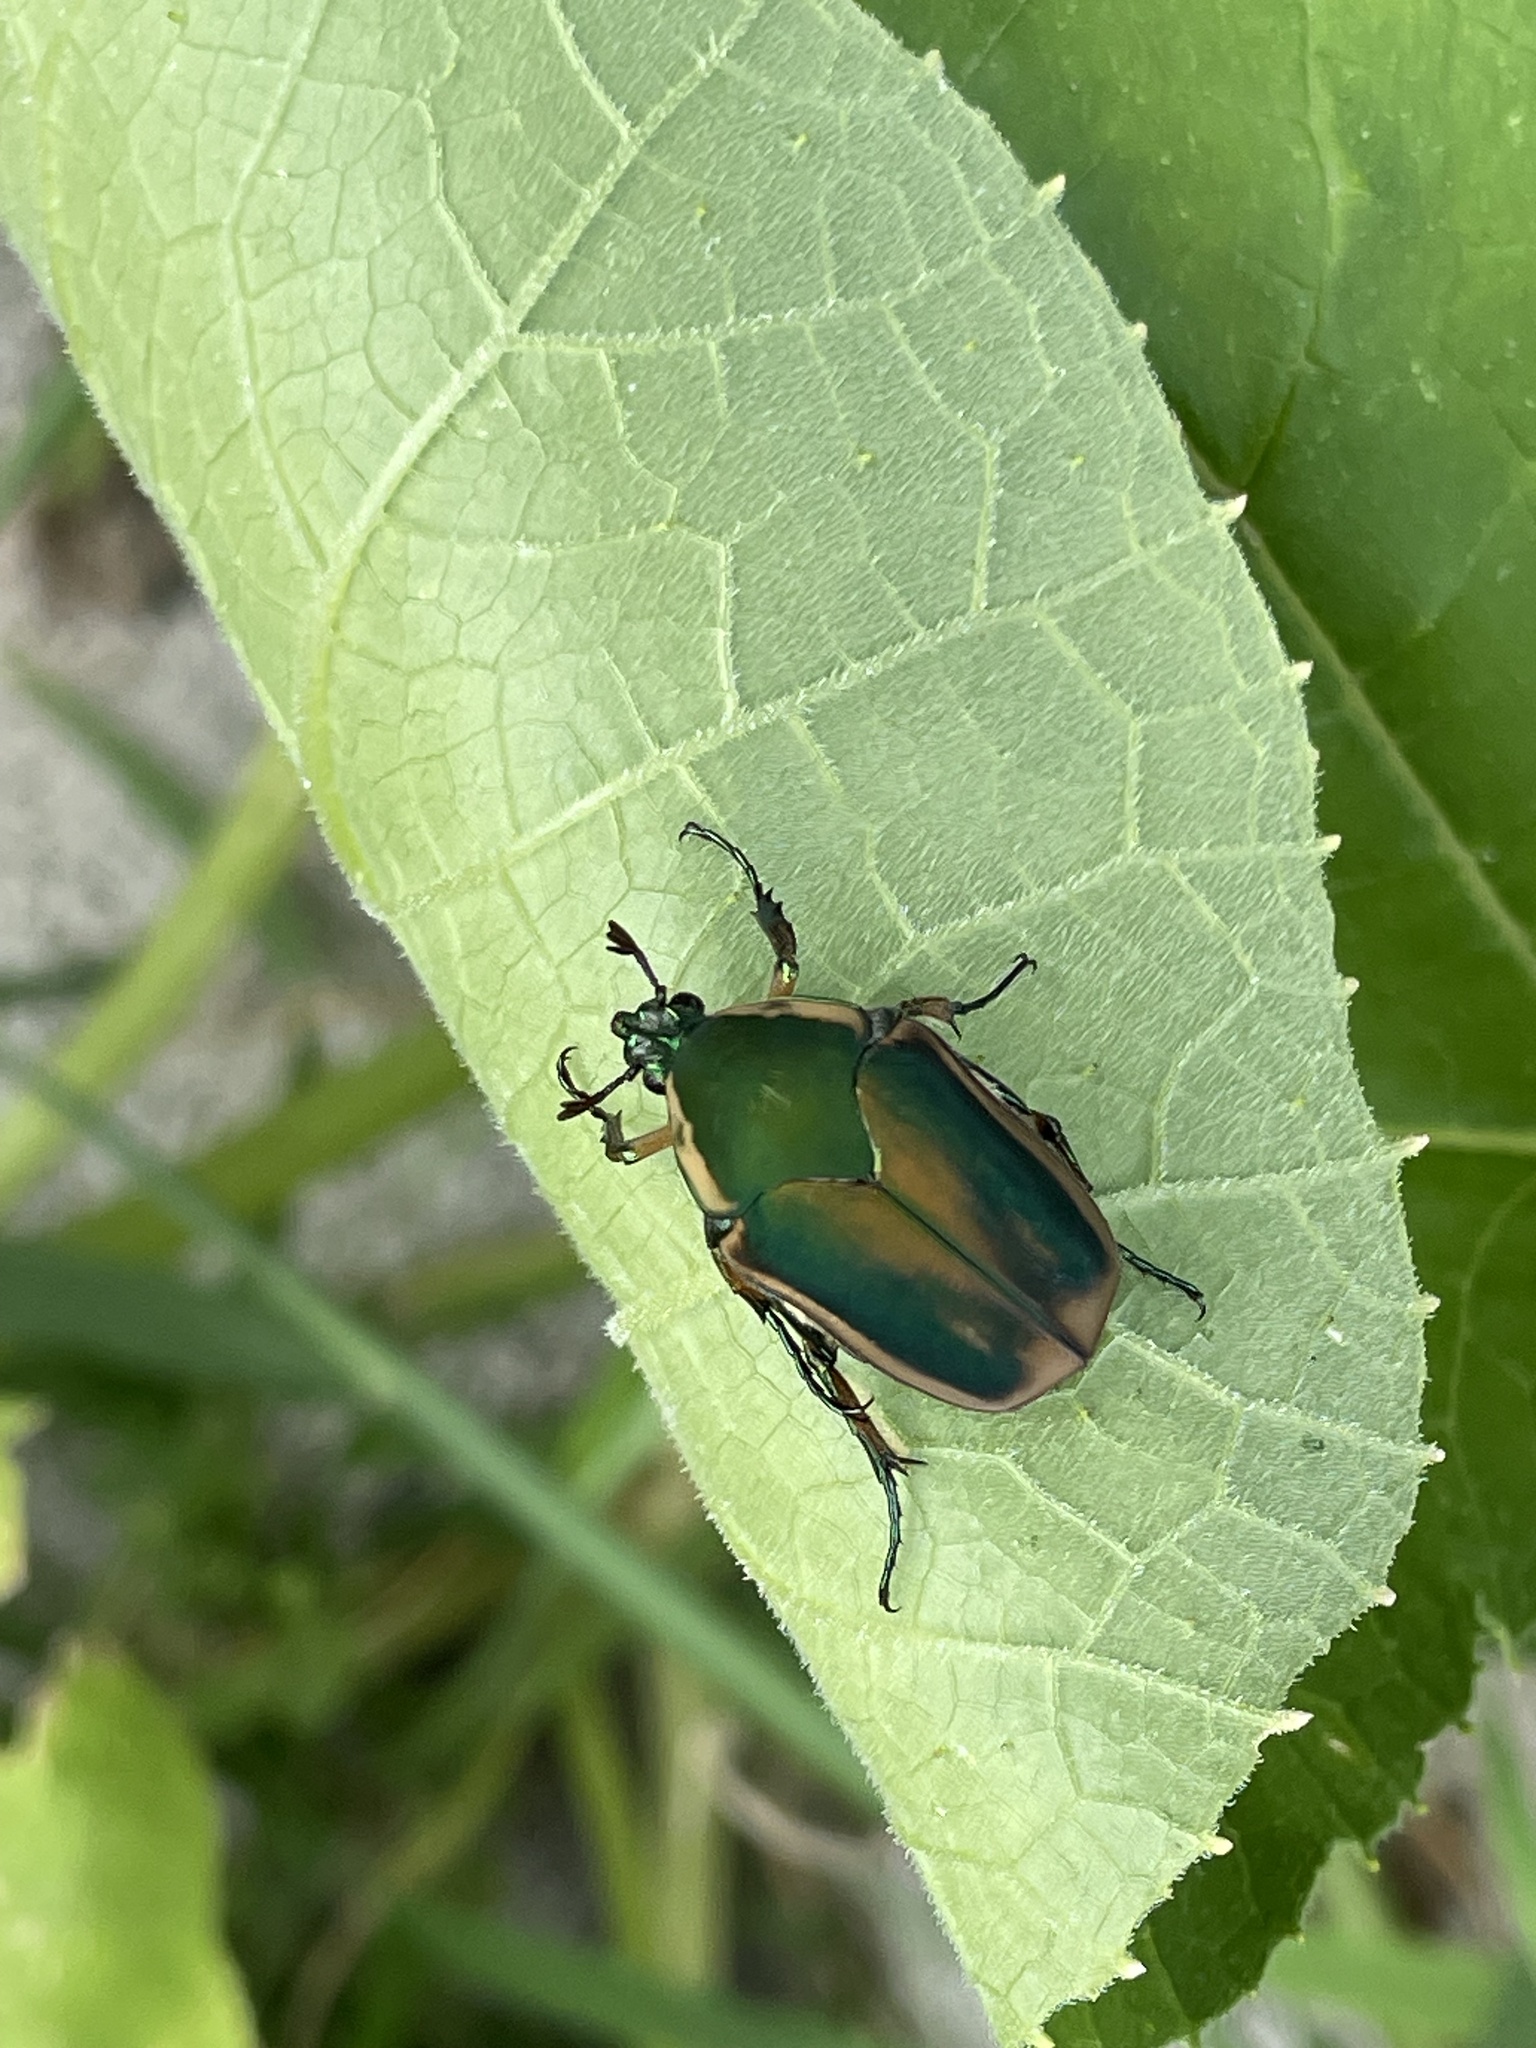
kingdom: Animalia
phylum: Arthropoda
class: Insecta
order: Coleoptera
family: Scarabaeidae
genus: Cotinis
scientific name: Cotinis nitida
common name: Common green june beetle
